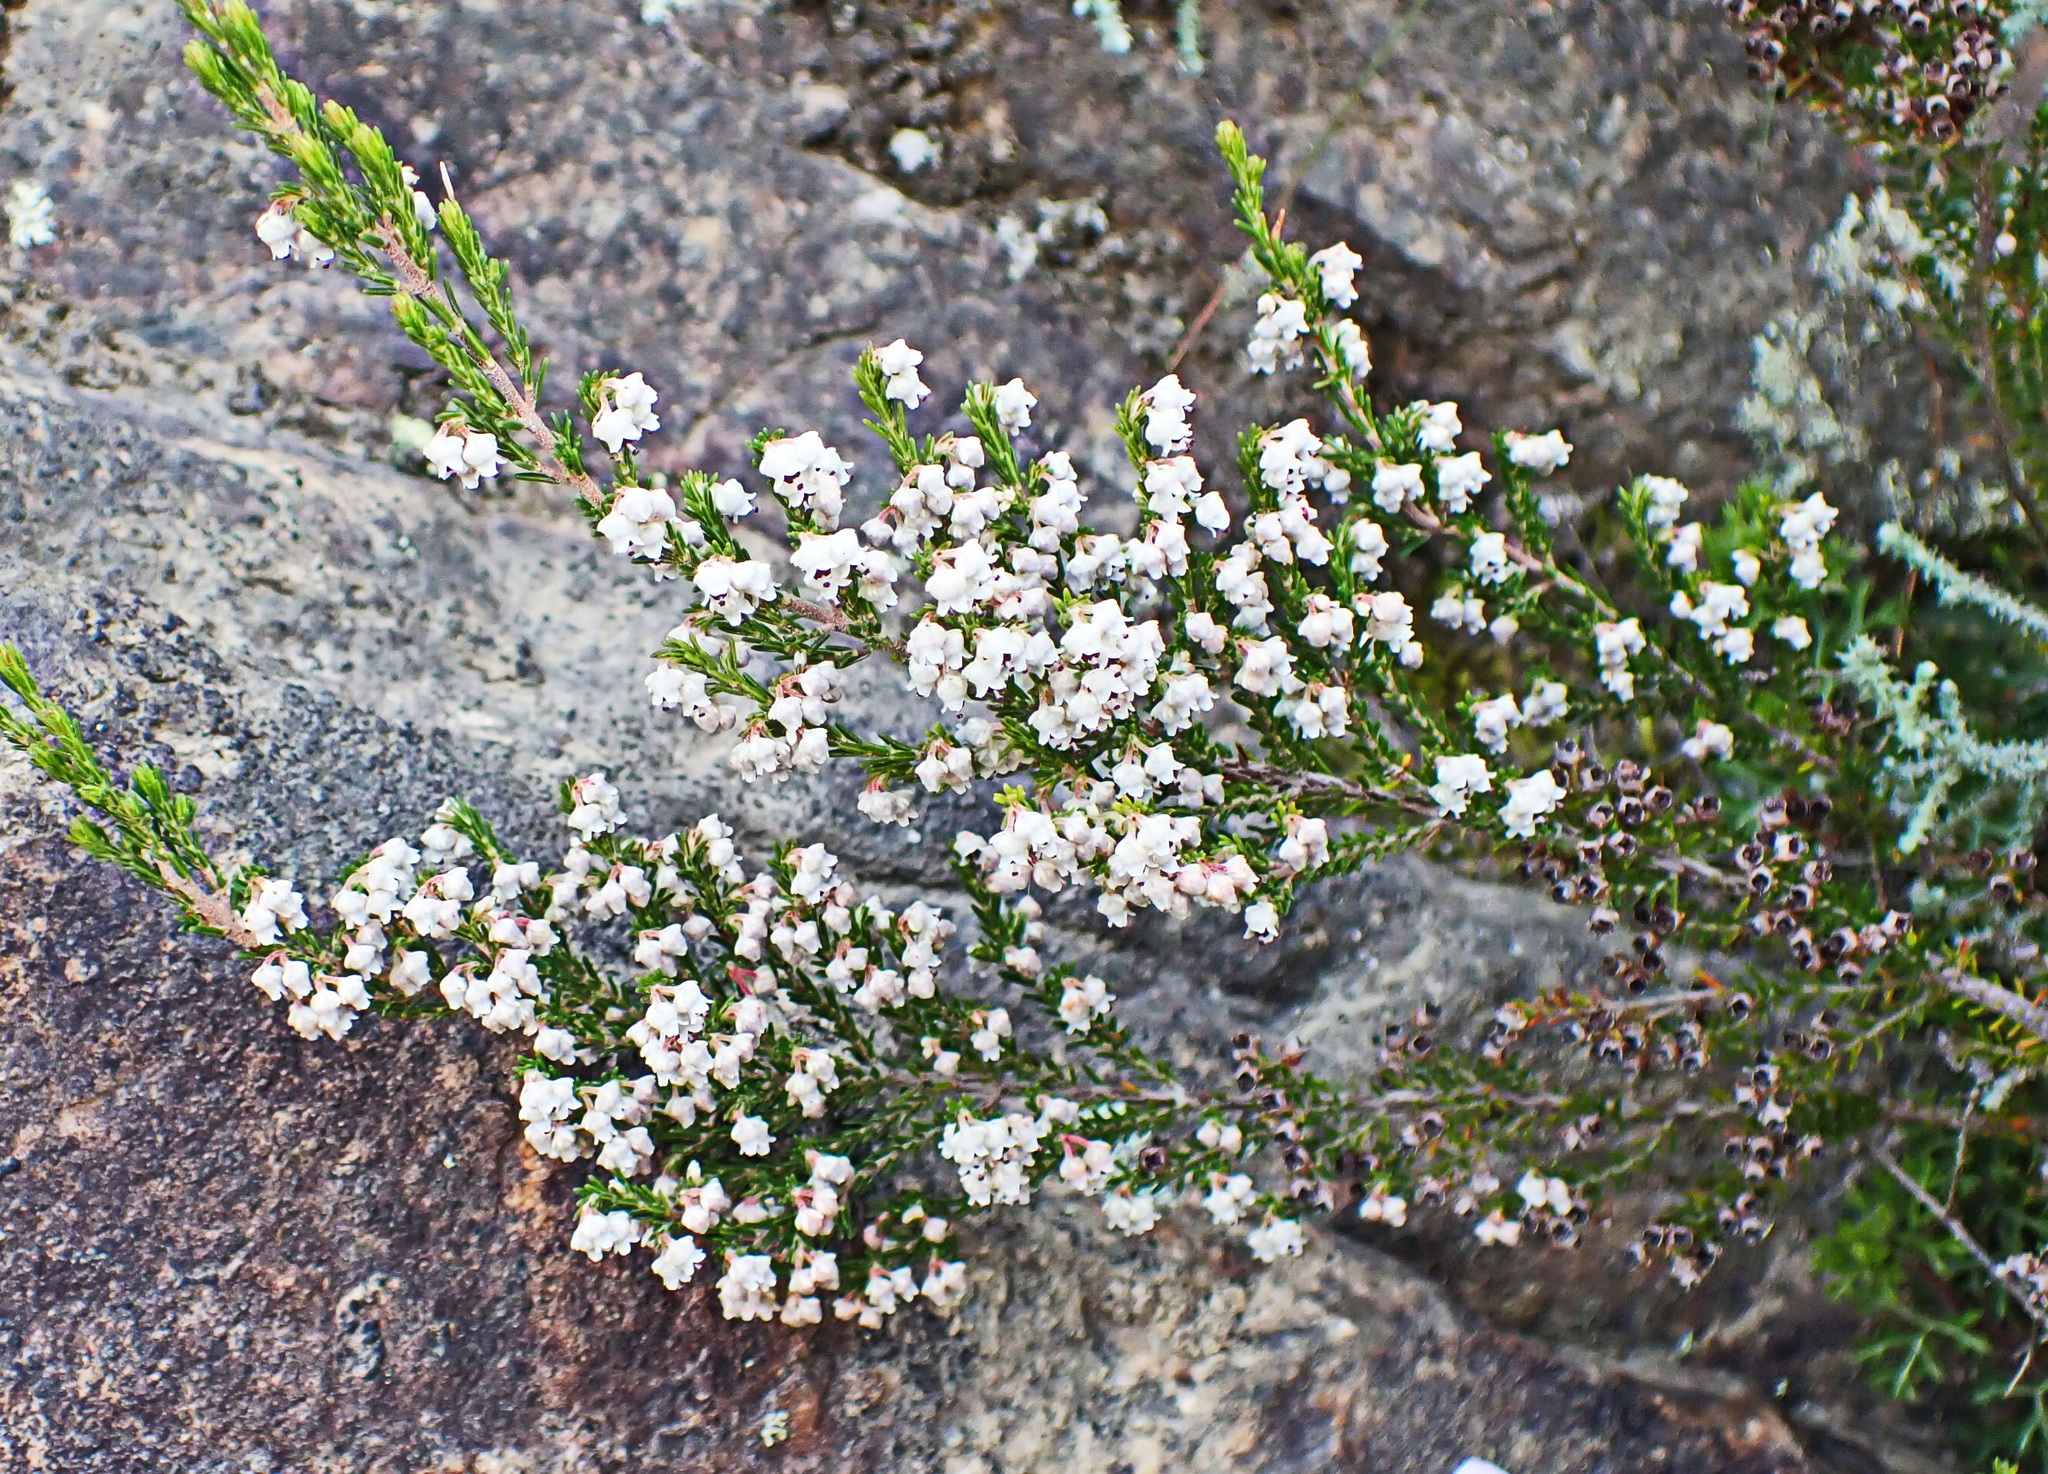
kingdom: Plantae
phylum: Tracheophyta
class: Magnoliopsida
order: Ericales
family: Ericaceae
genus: Erica
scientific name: Erica fimbriata
